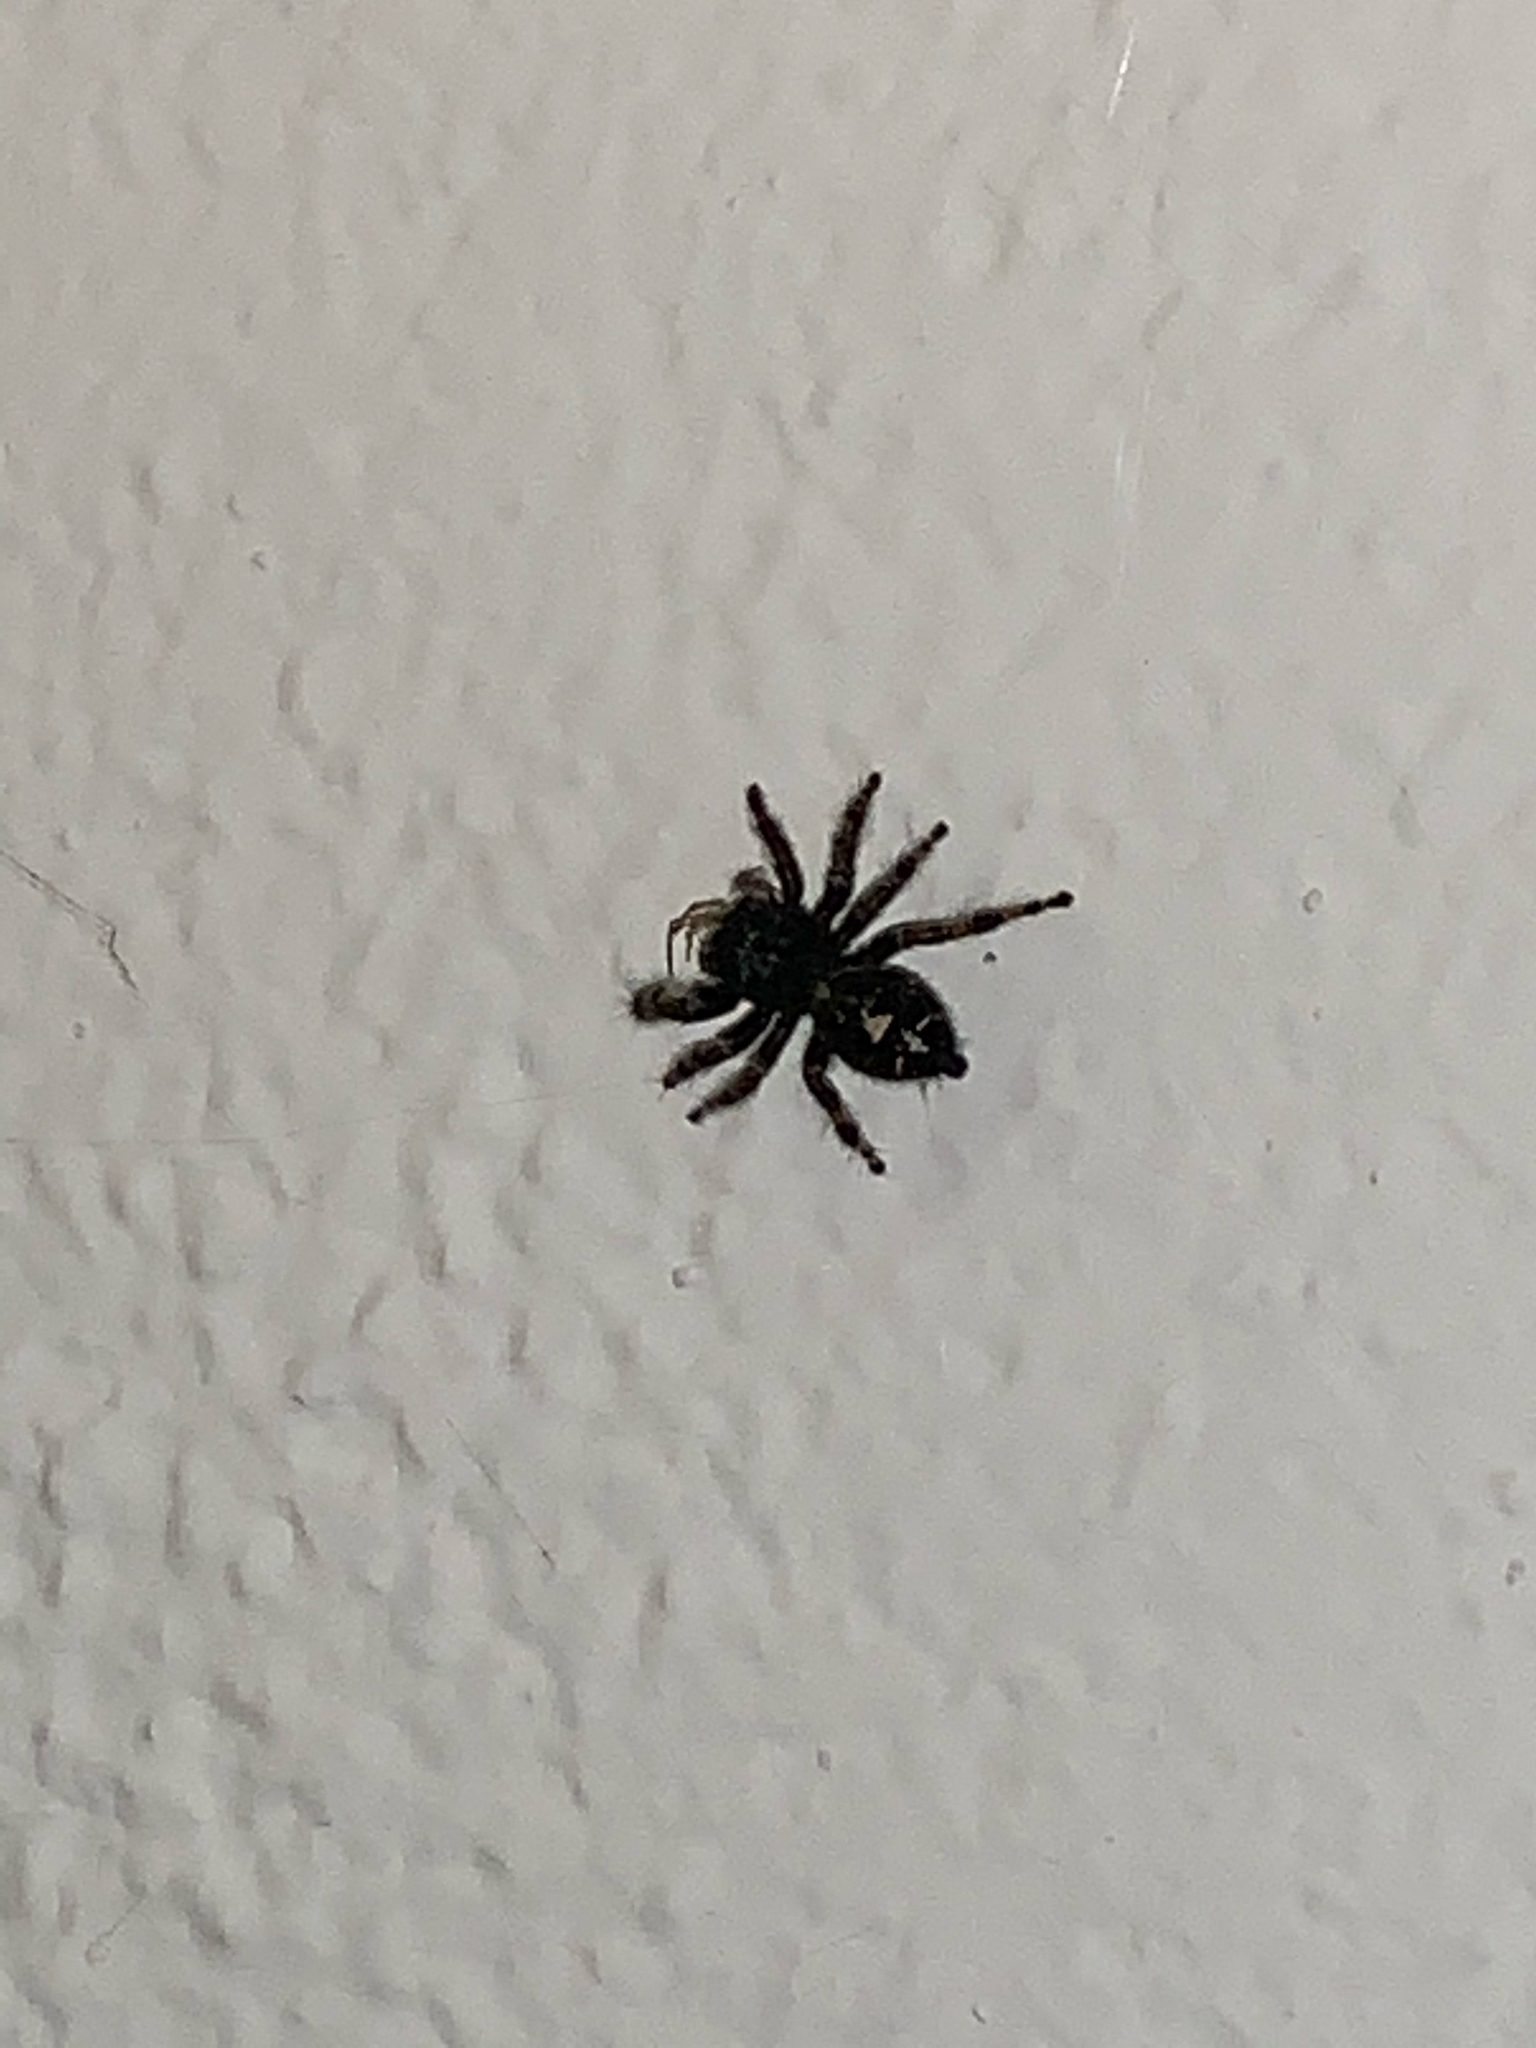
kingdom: Animalia
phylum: Arthropoda
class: Arachnida
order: Araneae
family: Salticidae
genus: Phidippus
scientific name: Phidippus audax
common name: Bold jumper
